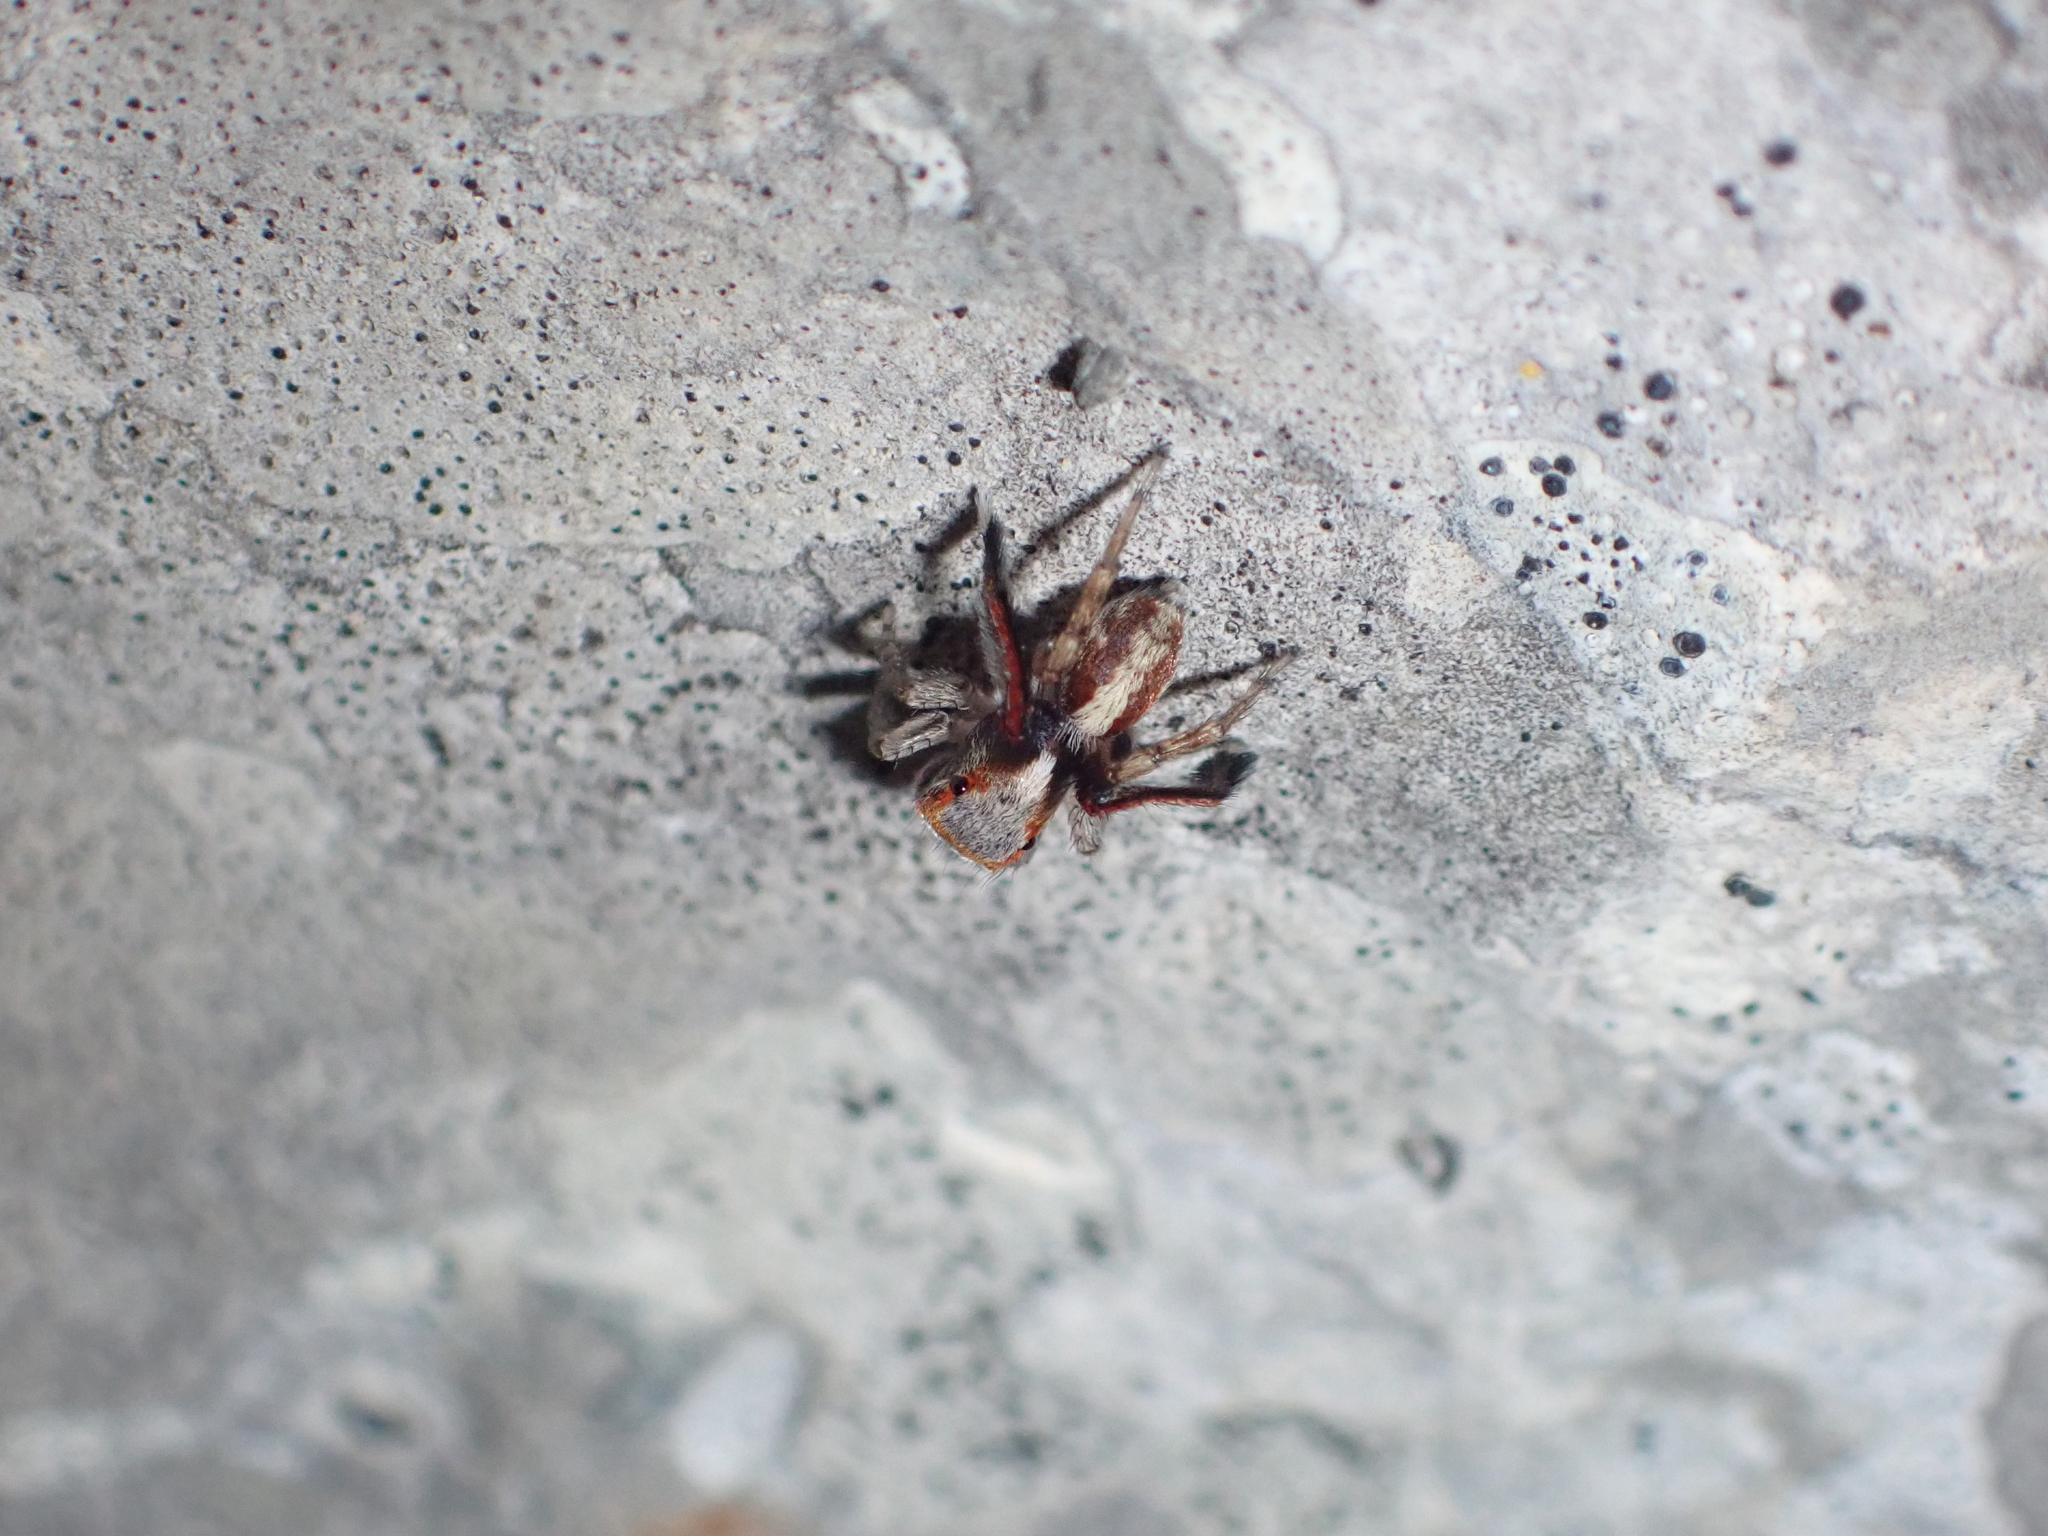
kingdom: Animalia
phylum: Arthropoda
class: Arachnida
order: Araneae
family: Salticidae
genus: Saitis
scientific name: Saitis barbipes
